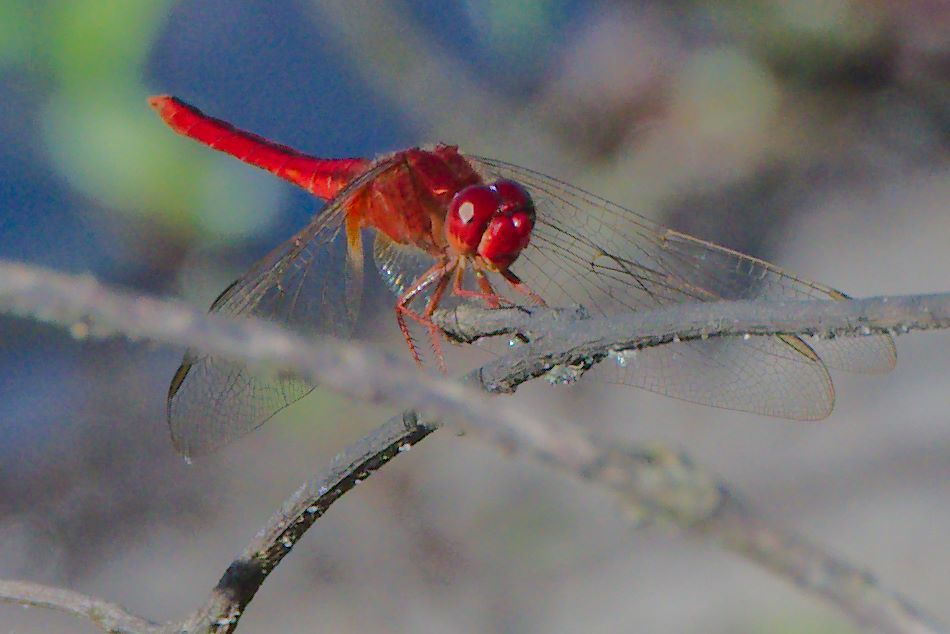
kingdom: Animalia
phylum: Arthropoda
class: Insecta
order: Odonata
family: Libellulidae
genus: Crocothemis
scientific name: Crocothemis servilia
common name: Scarlet skimmer
